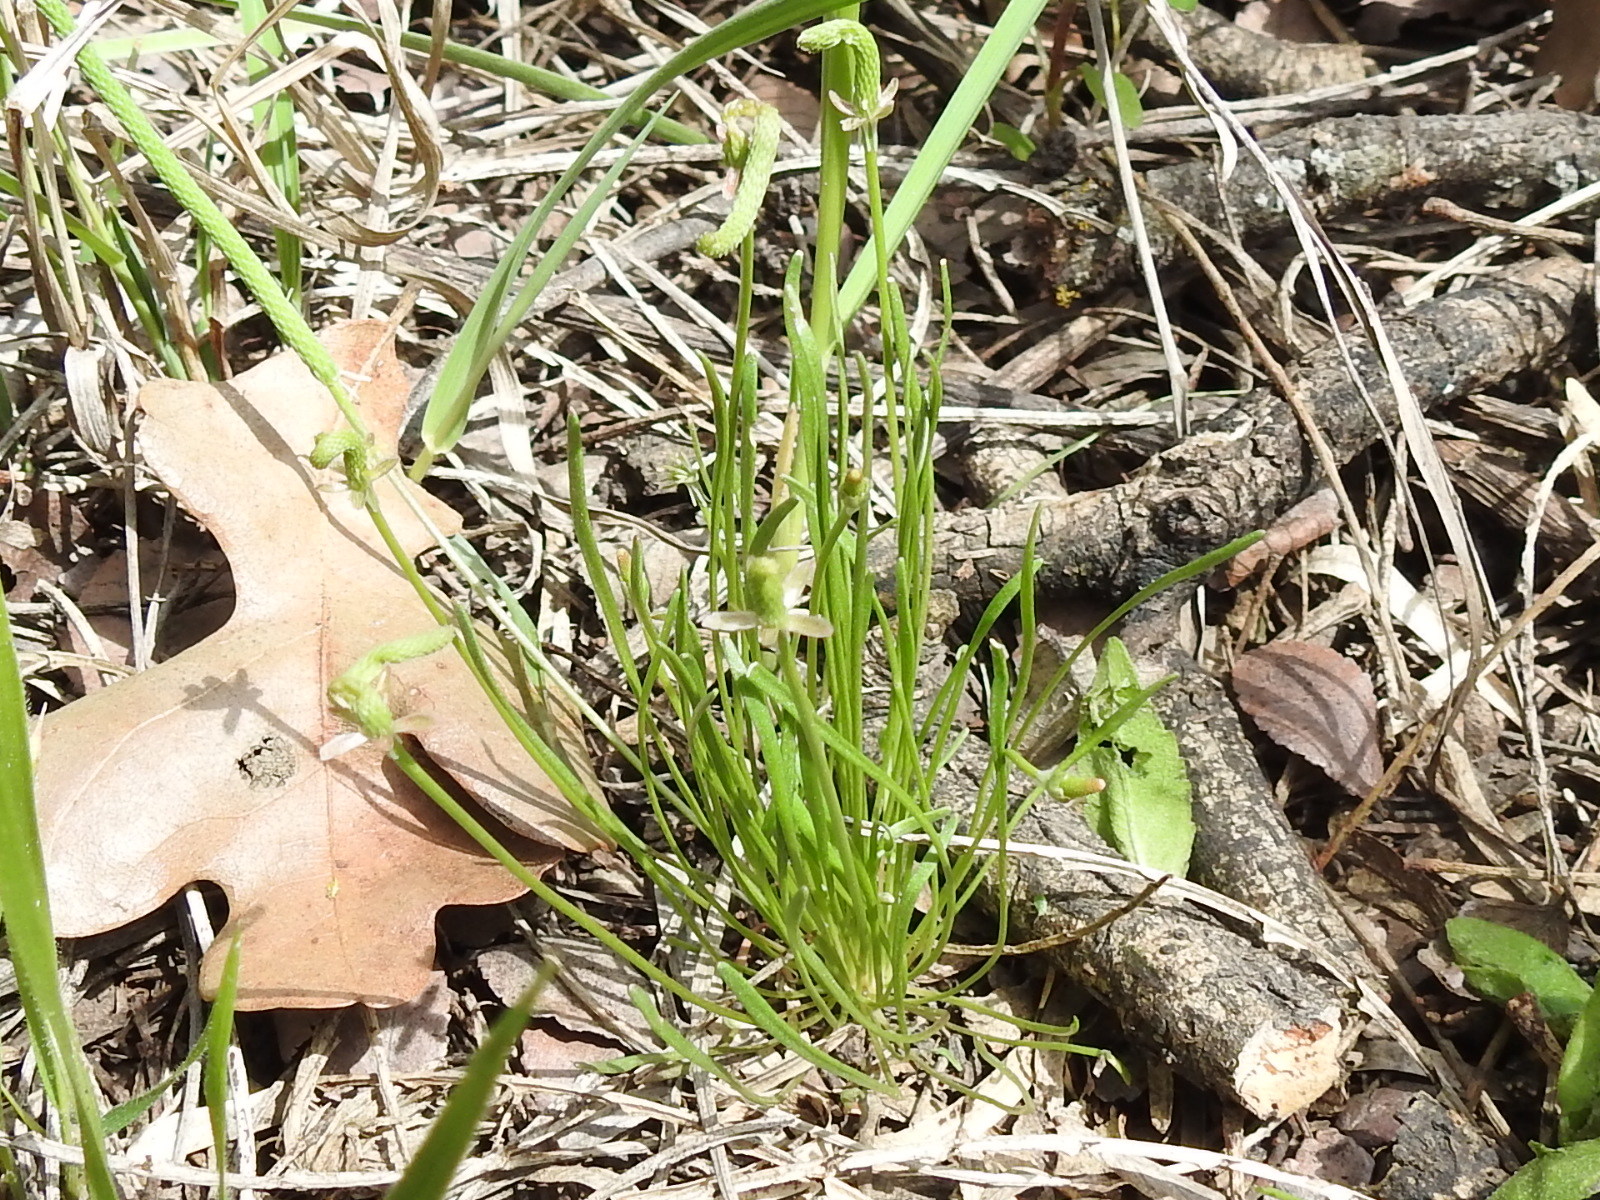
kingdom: Plantae
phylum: Tracheophyta
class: Magnoliopsida
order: Ranunculales
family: Ranunculaceae
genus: Myosurus
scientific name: Myosurus minimus
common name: Mousetail
